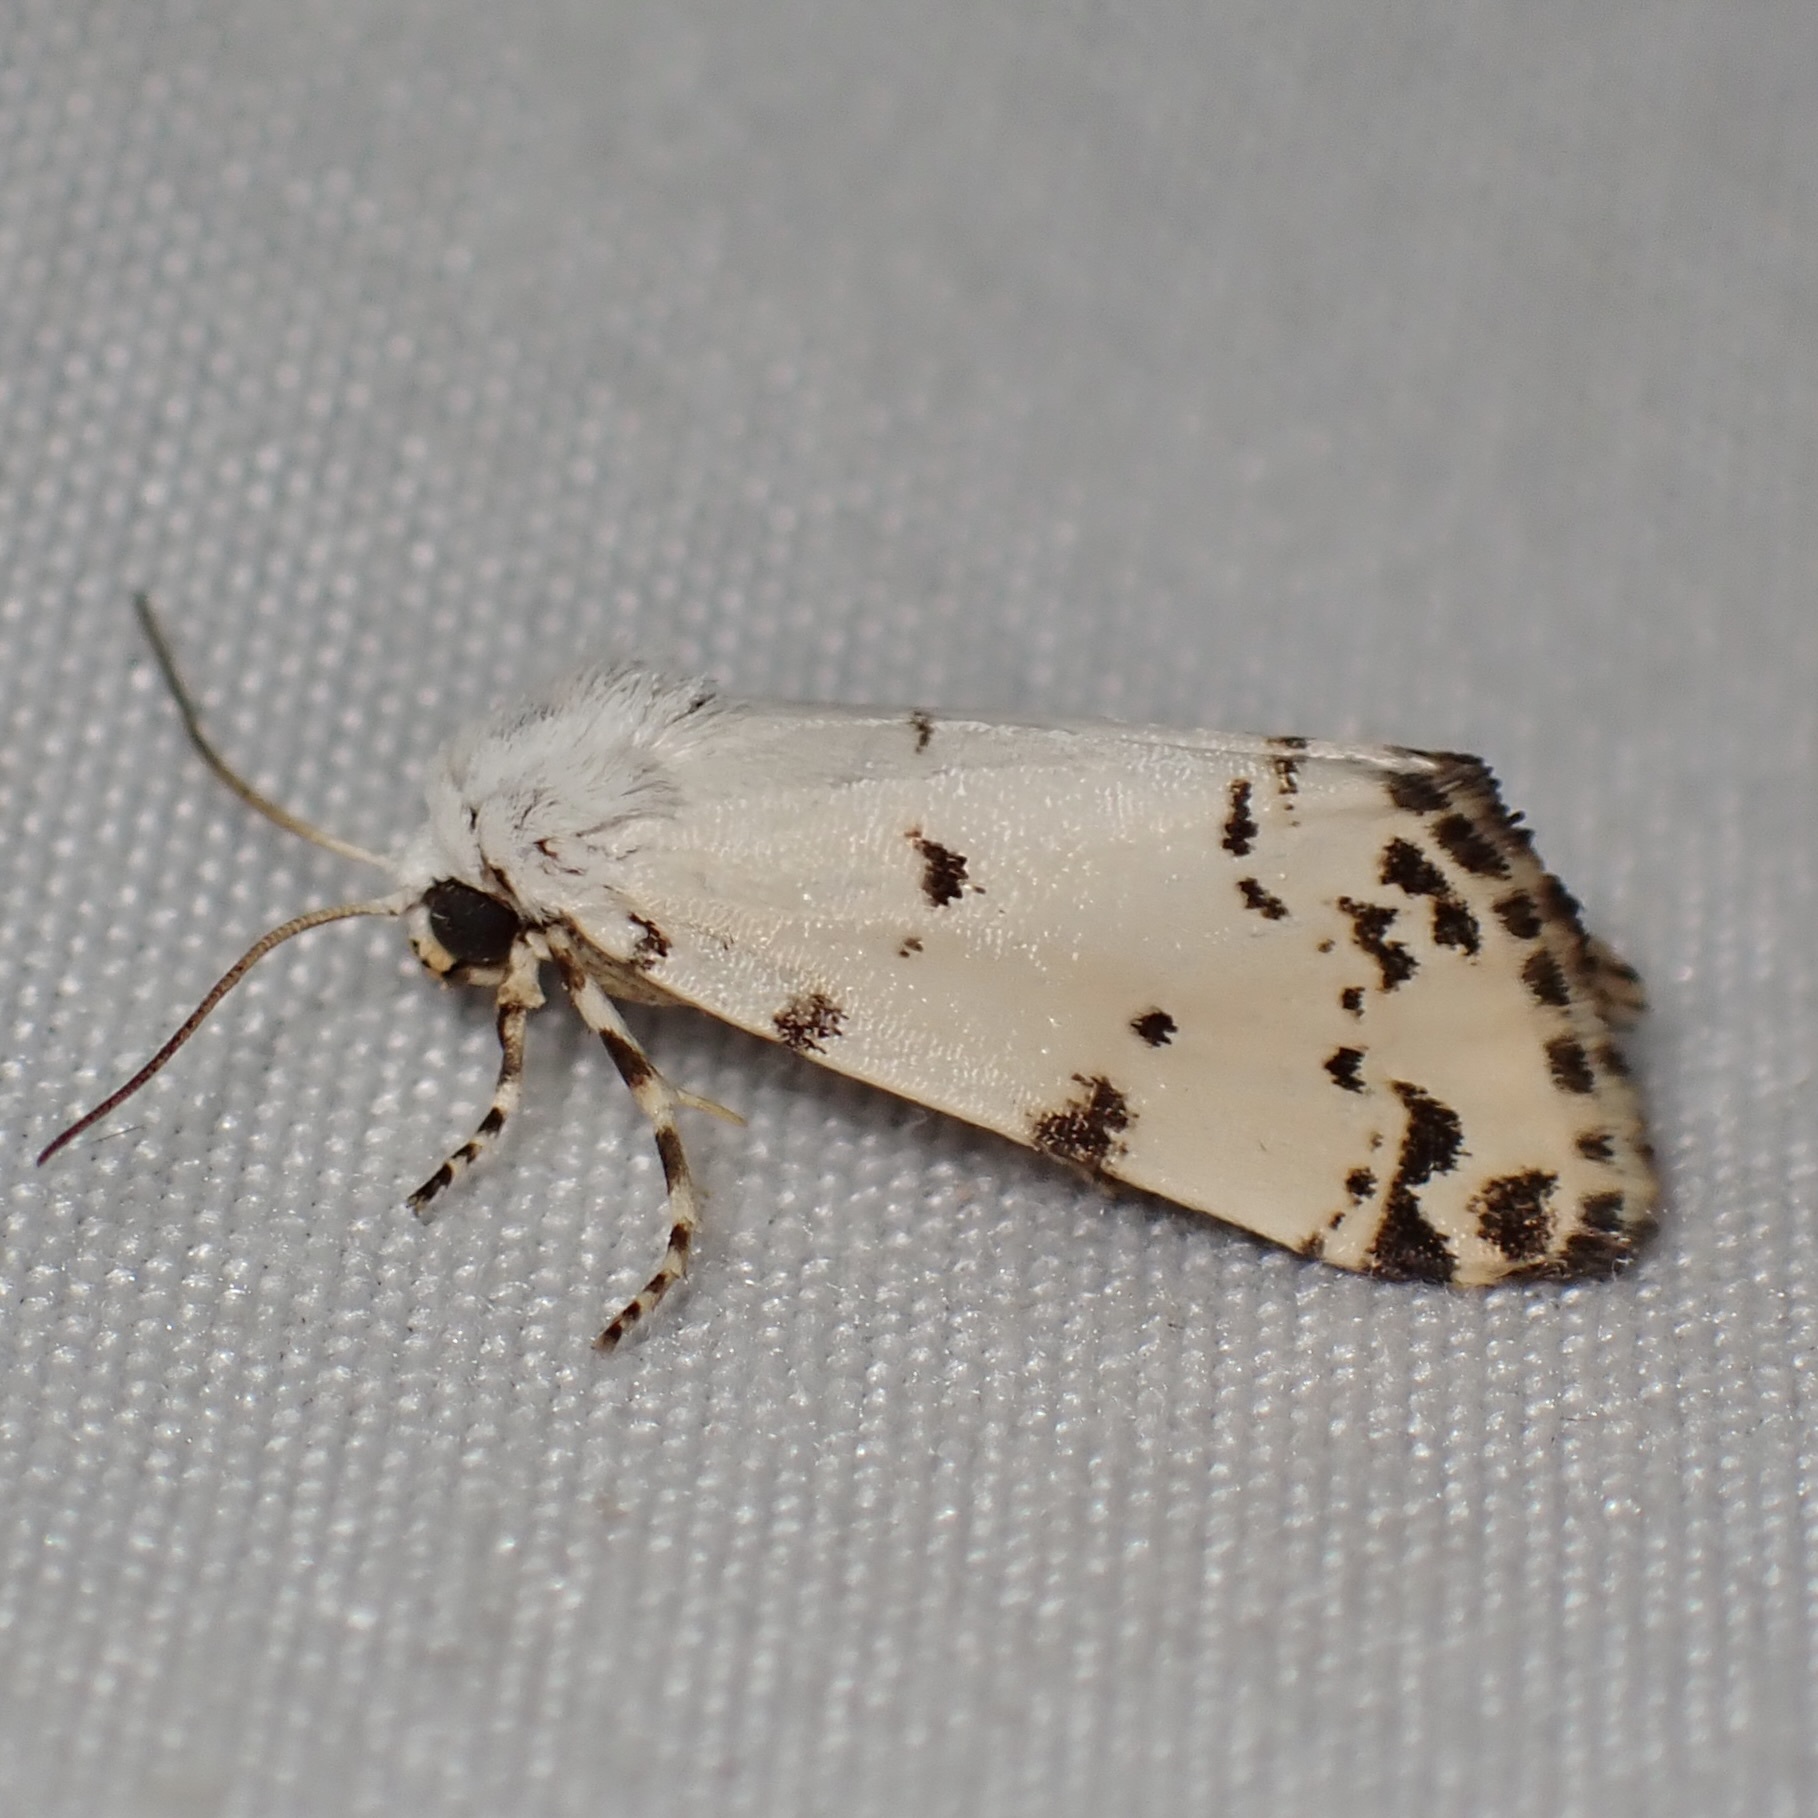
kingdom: Animalia
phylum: Arthropoda
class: Insecta
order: Lepidoptera
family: Noctuidae
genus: Grotella
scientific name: Grotella soror
